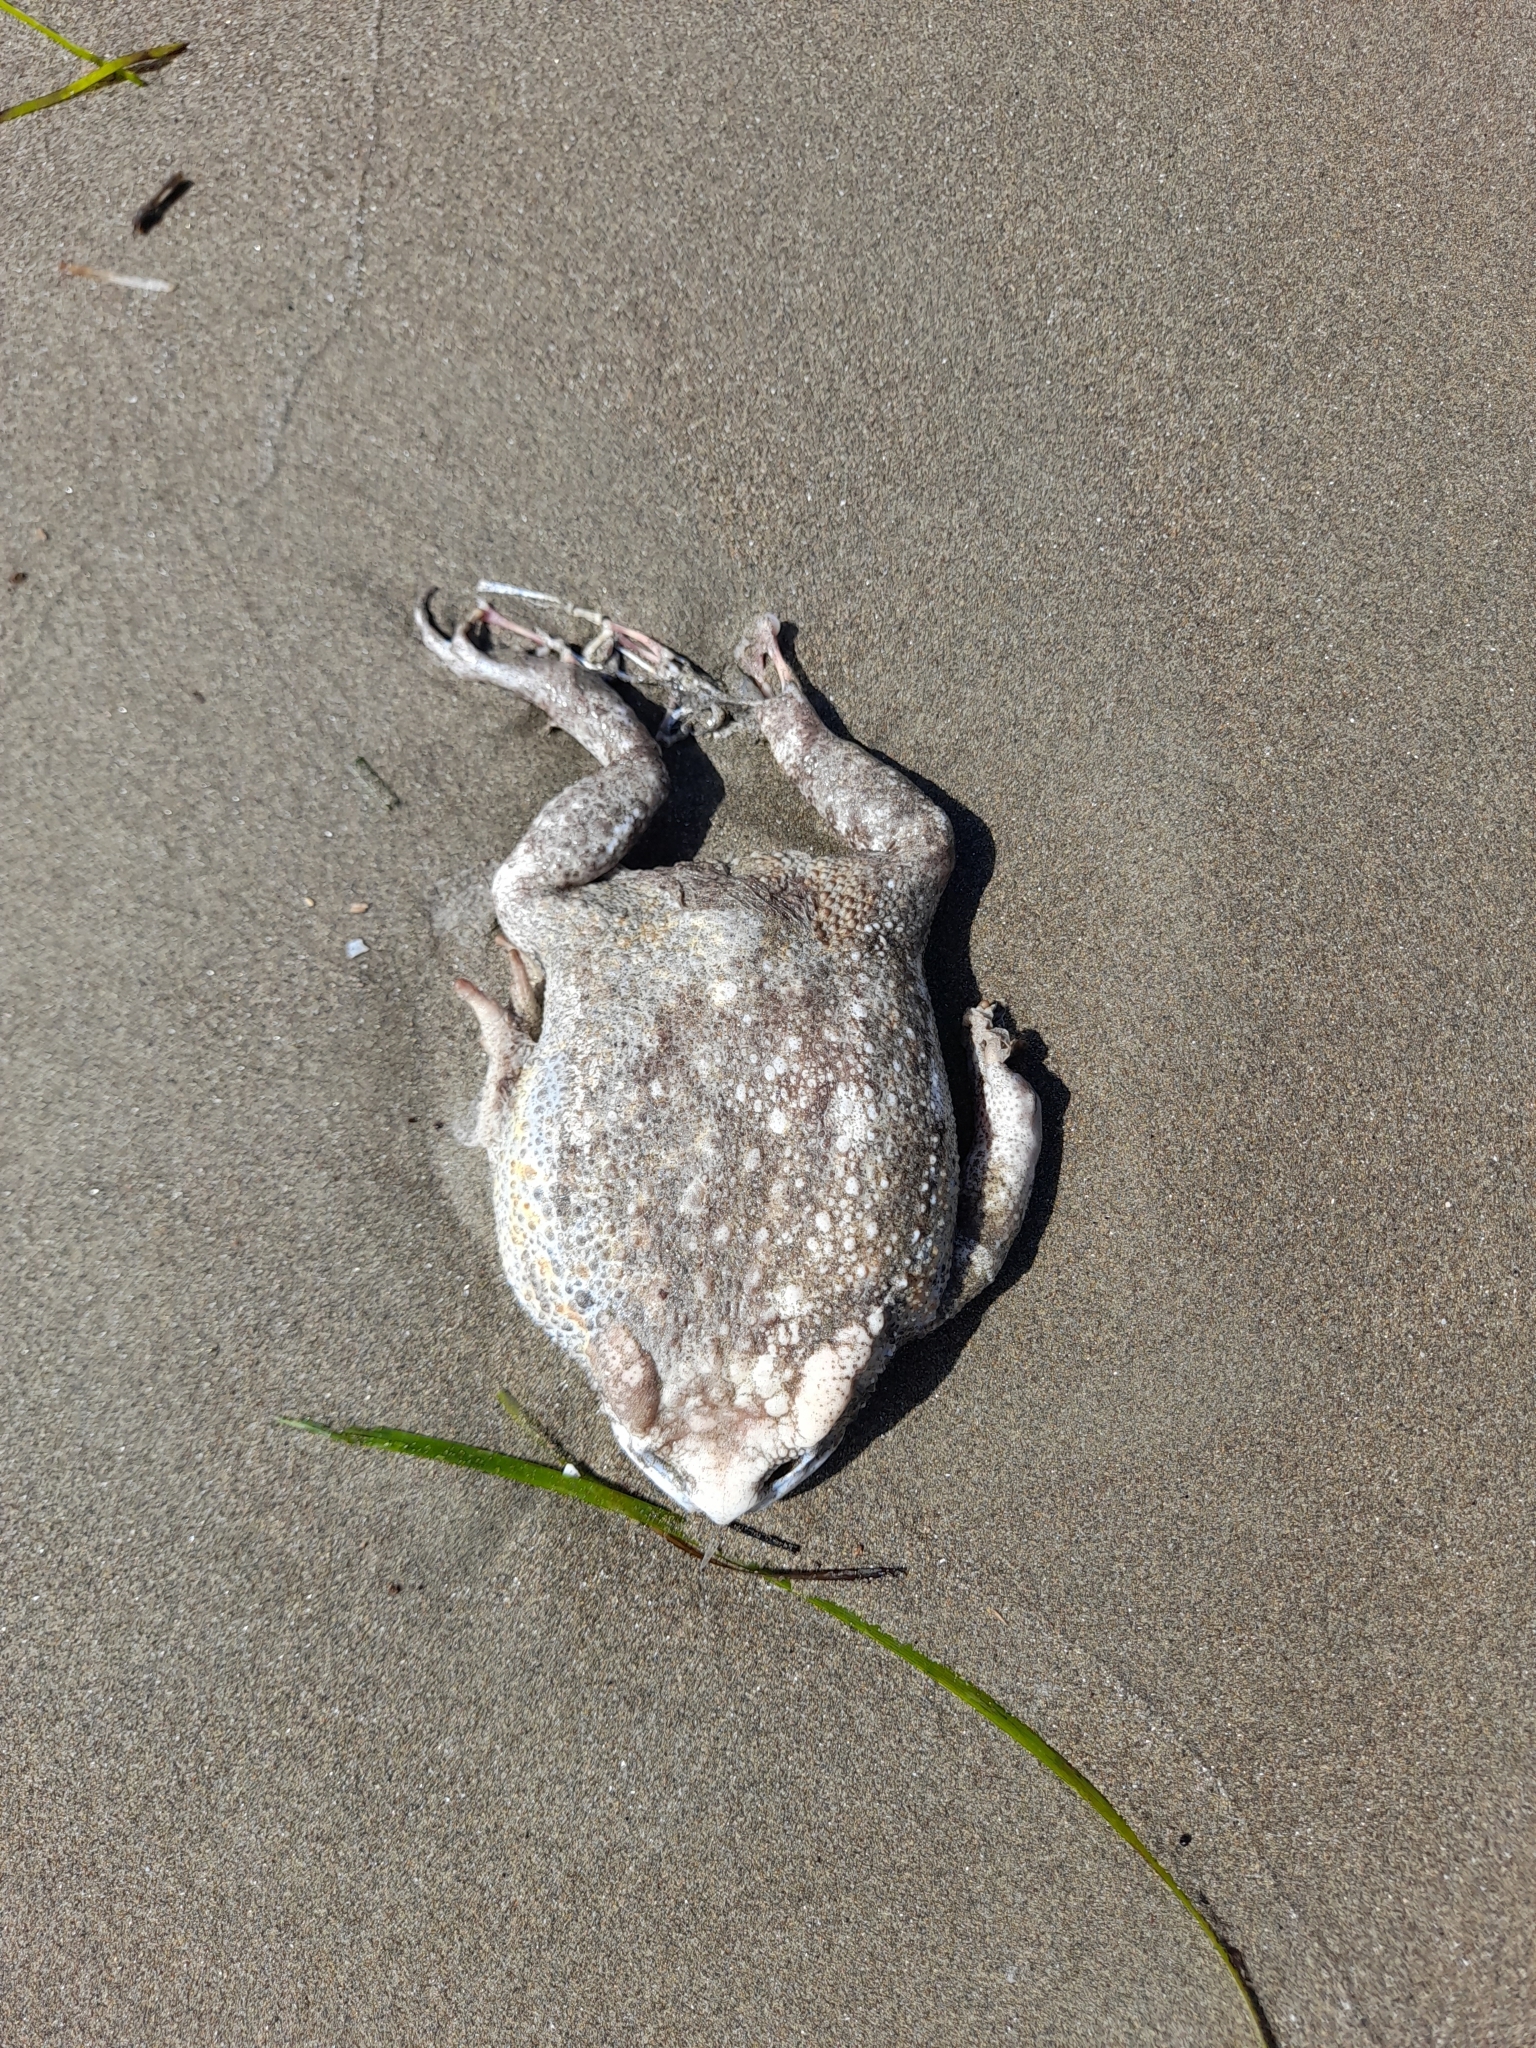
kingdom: Animalia
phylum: Chordata
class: Amphibia
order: Anura
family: Bufonidae
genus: Bufo
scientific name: Bufo bufo
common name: Common toad
